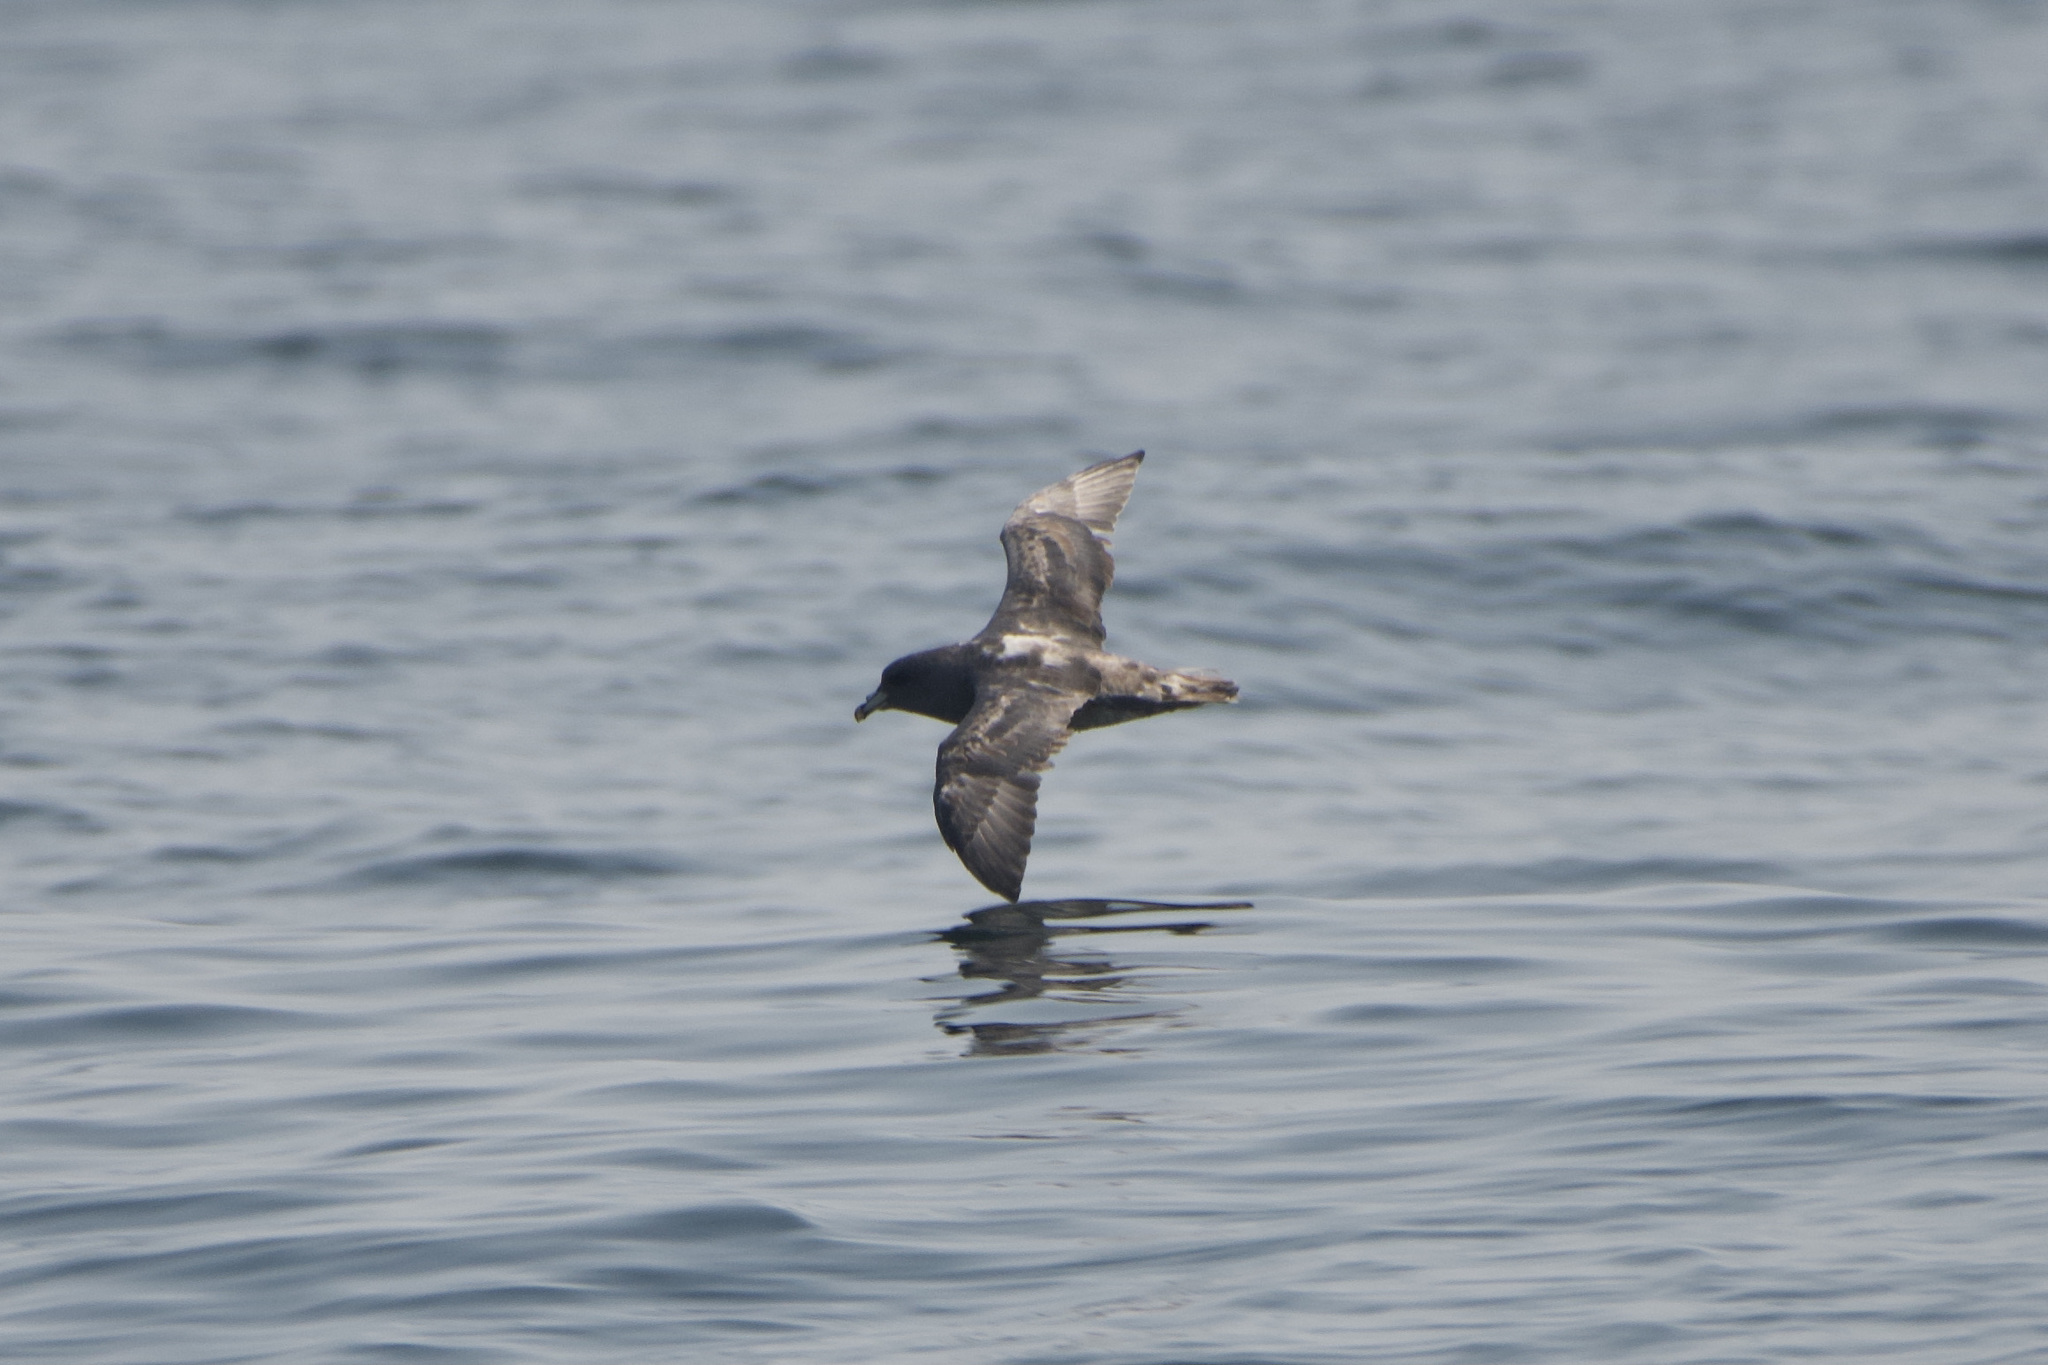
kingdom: Animalia
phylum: Chordata
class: Aves
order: Procellariiformes
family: Procellariidae
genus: Fulmarus
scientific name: Fulmarus glacialis
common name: Northern fulmar
